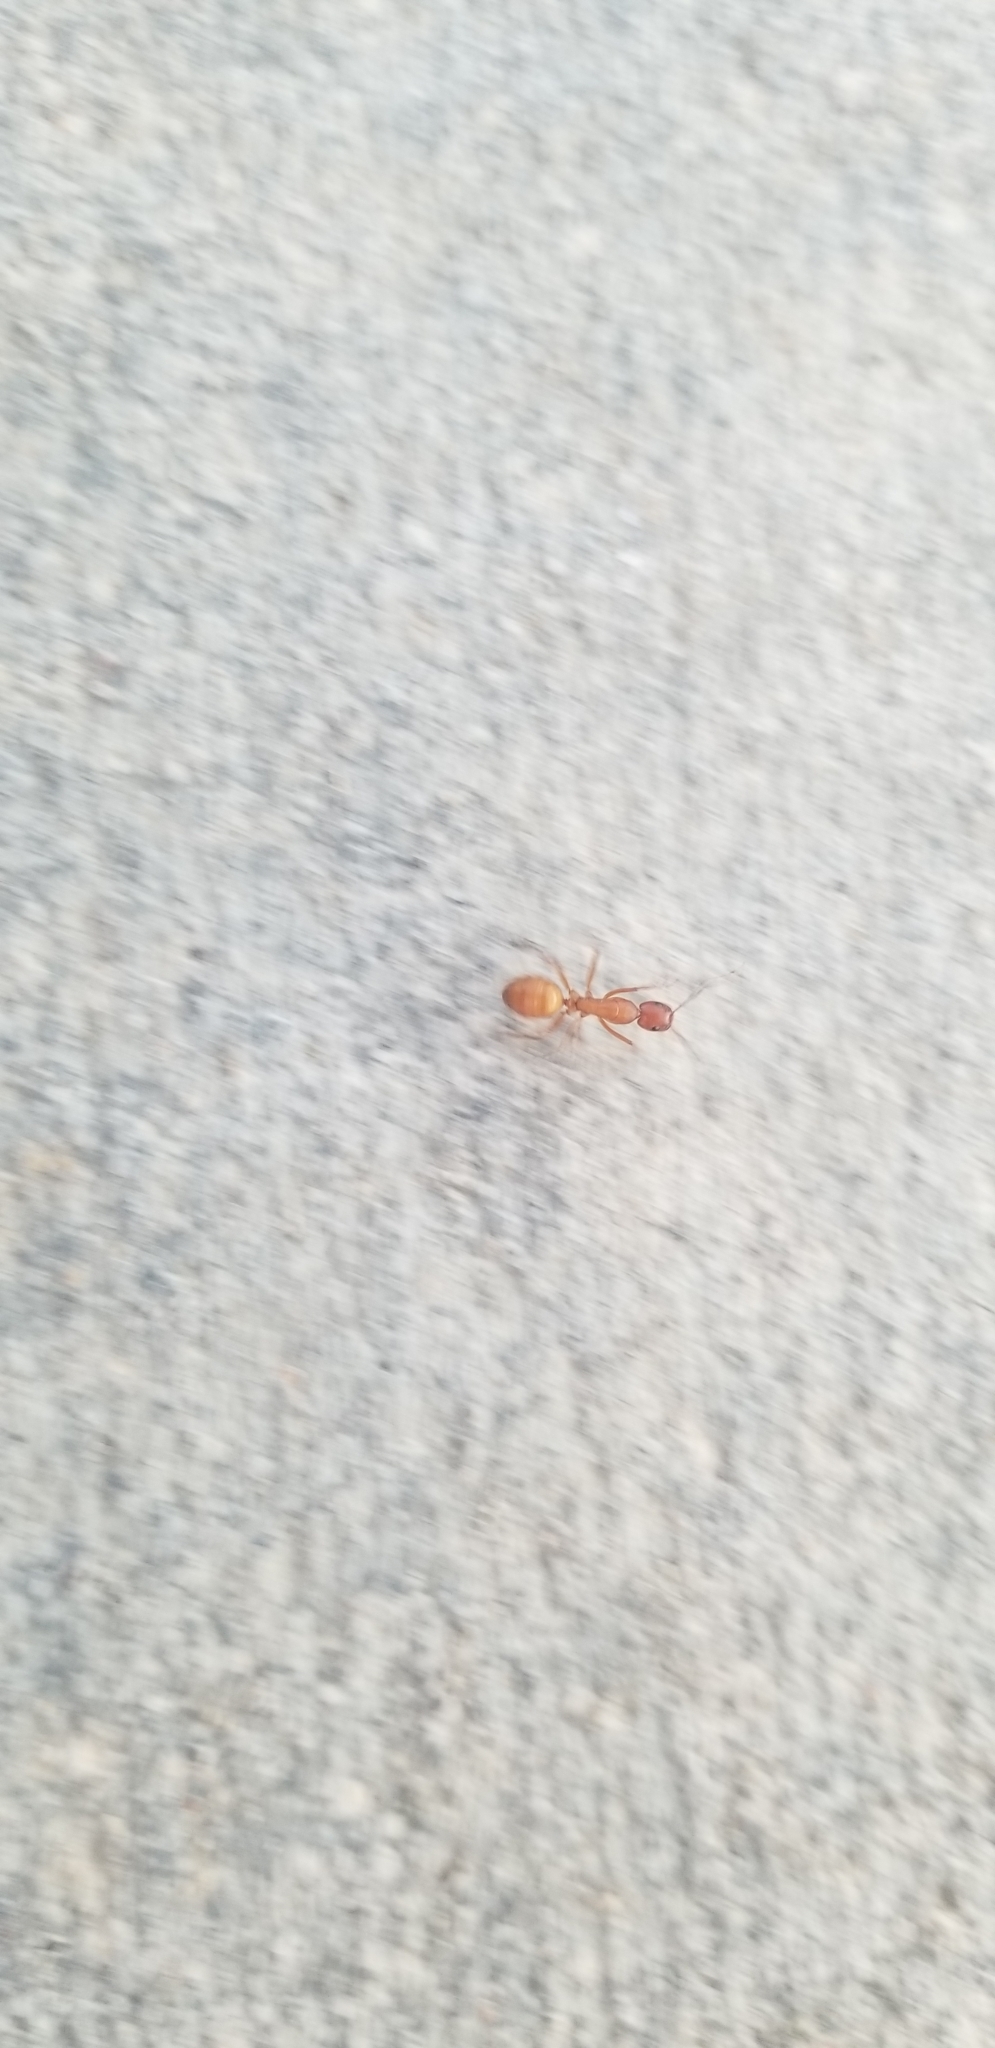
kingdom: Animalia
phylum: Arthropoda
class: Insecta
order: Hymenoptera
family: Formicidae
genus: Camponotus
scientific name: Camponotus castaneus
